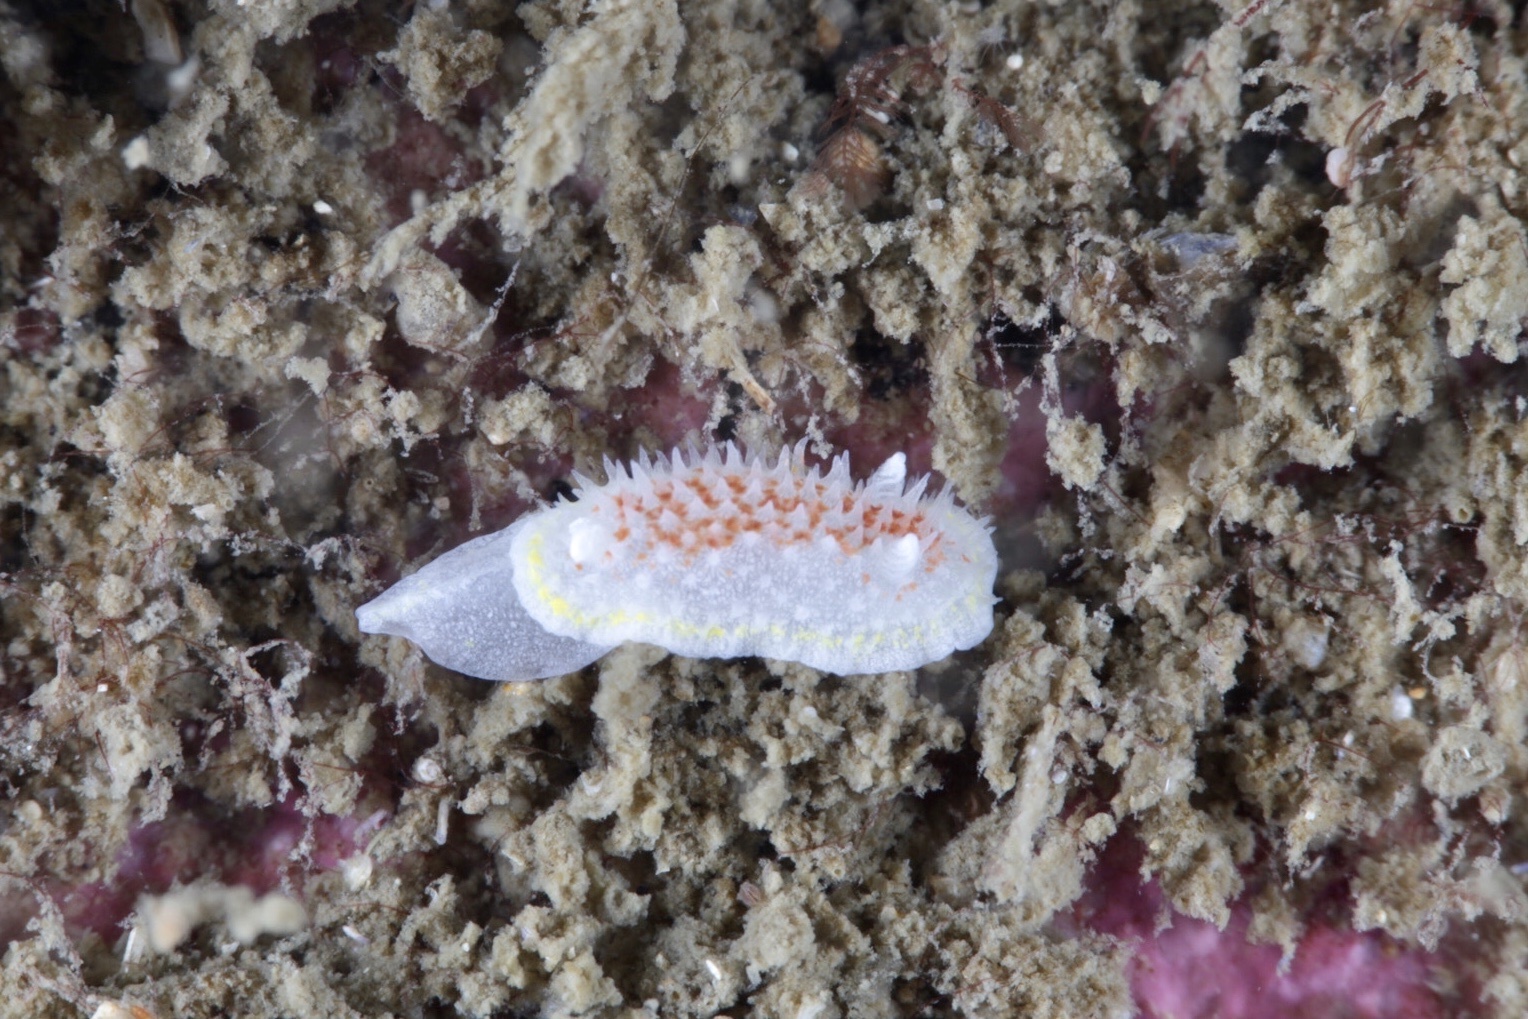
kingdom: Animalia
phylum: Mollusca
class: Gastropoda
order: Nudibranchia
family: Calycidorididae
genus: Diaphorodoris
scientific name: Diaphorodoris luteocincta
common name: Fried egg nudibranch
